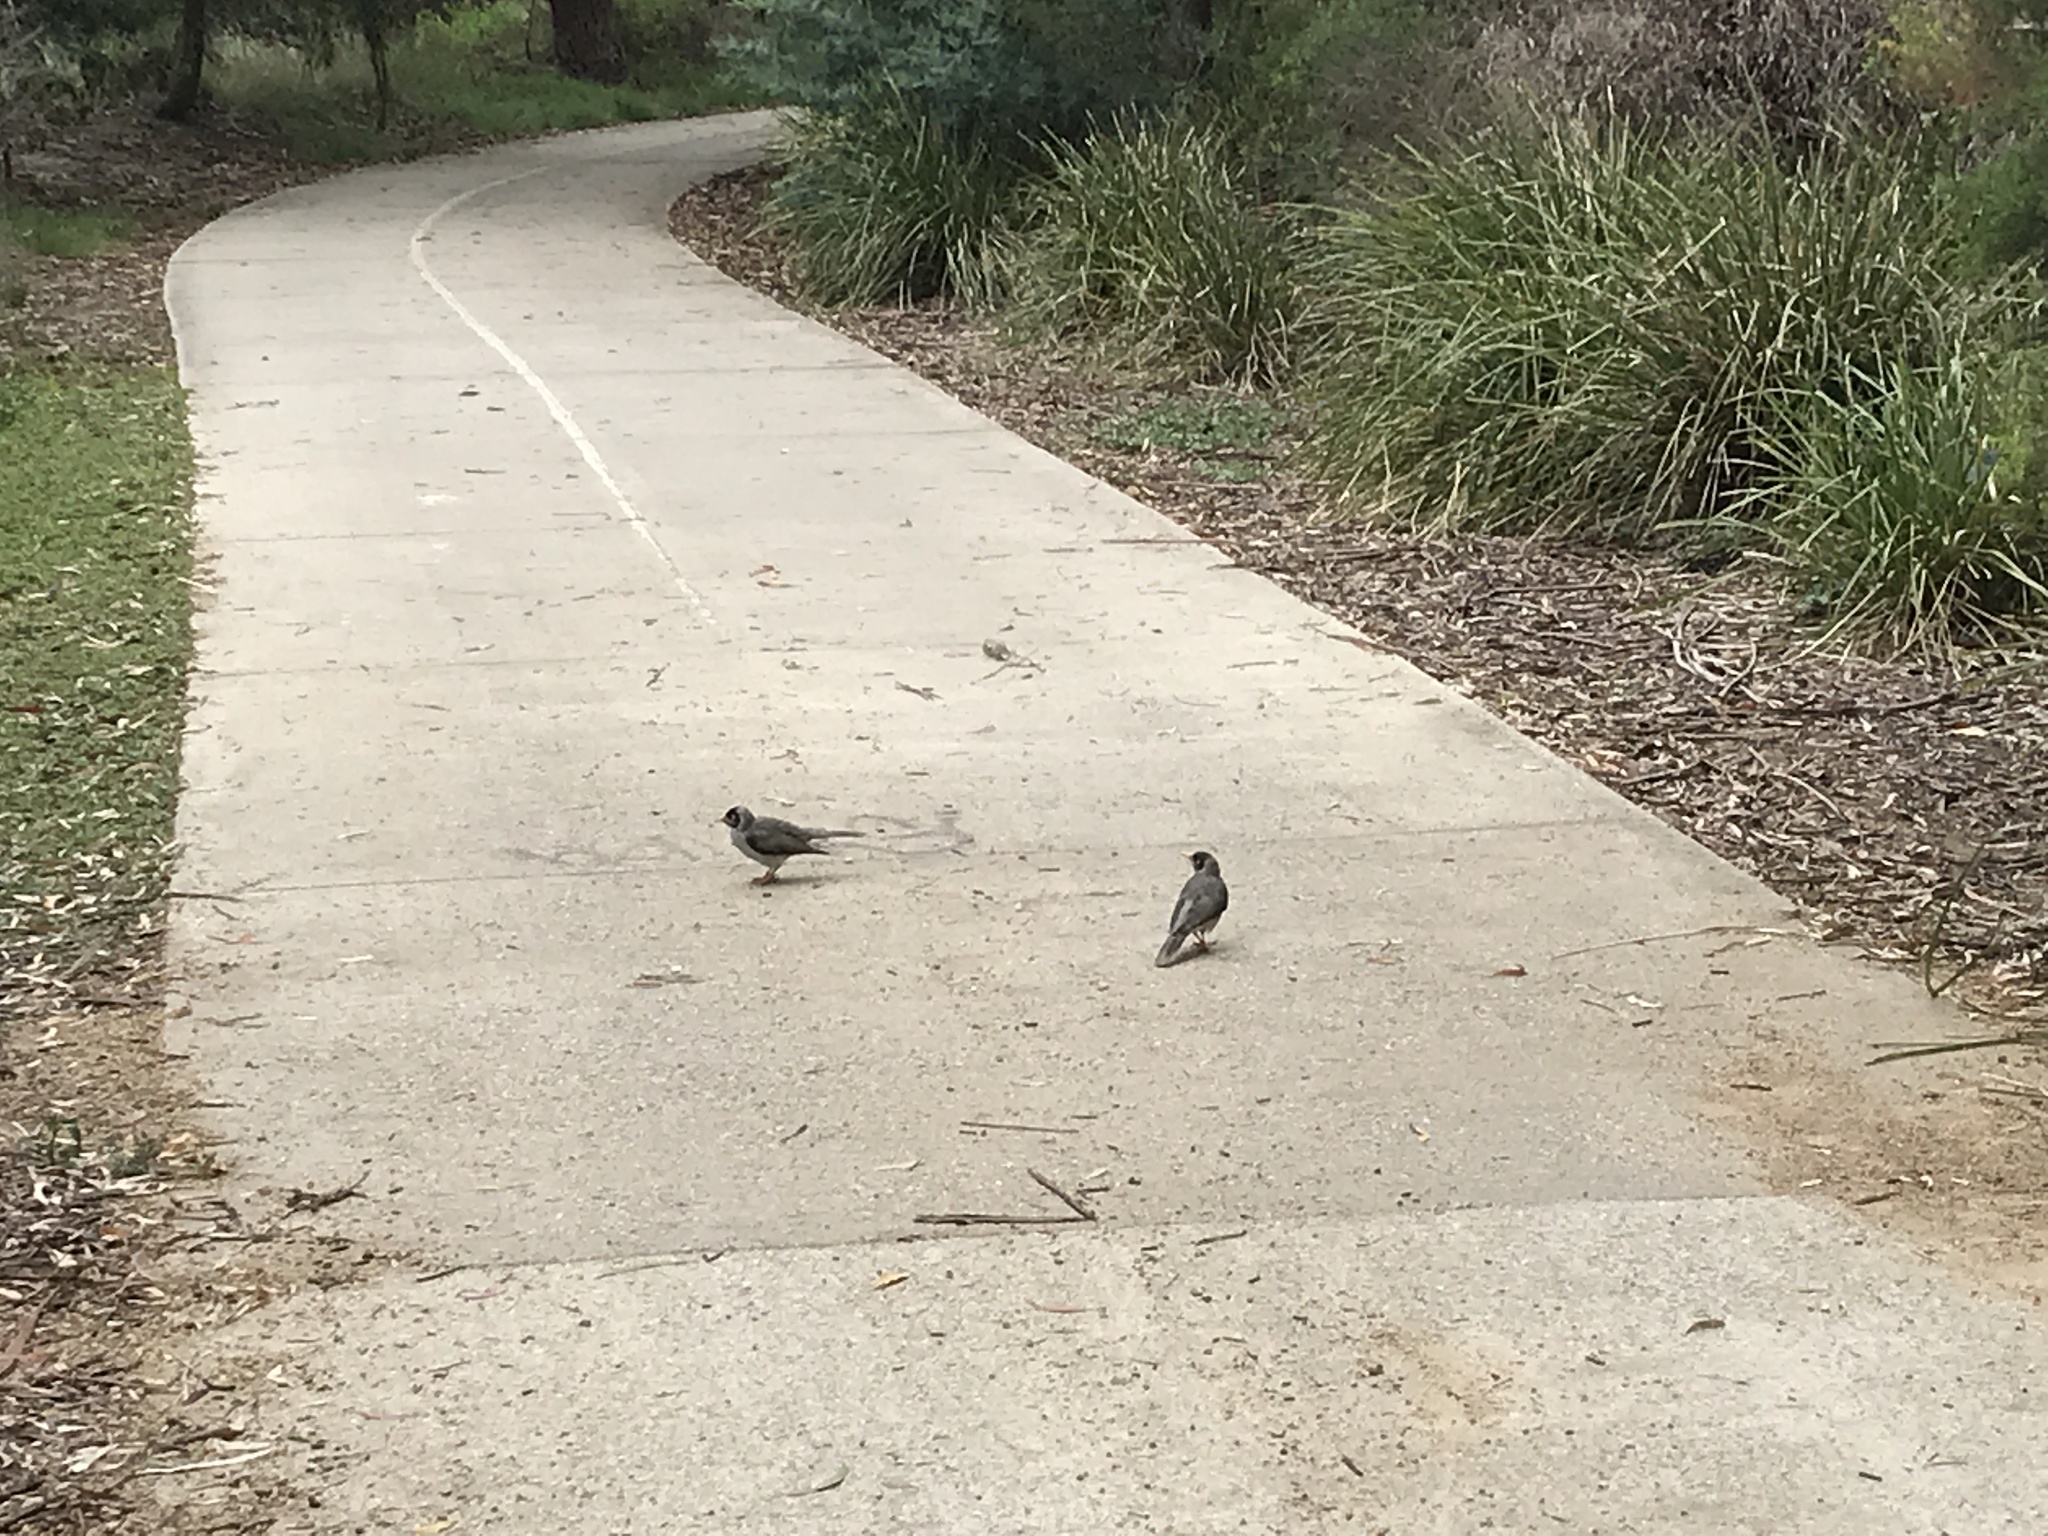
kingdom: Animalia
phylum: Chordata
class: Aves
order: Passeriformes
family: Meliphagidae
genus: Manorina
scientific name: Manorina melanocephala
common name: Noisy miner
